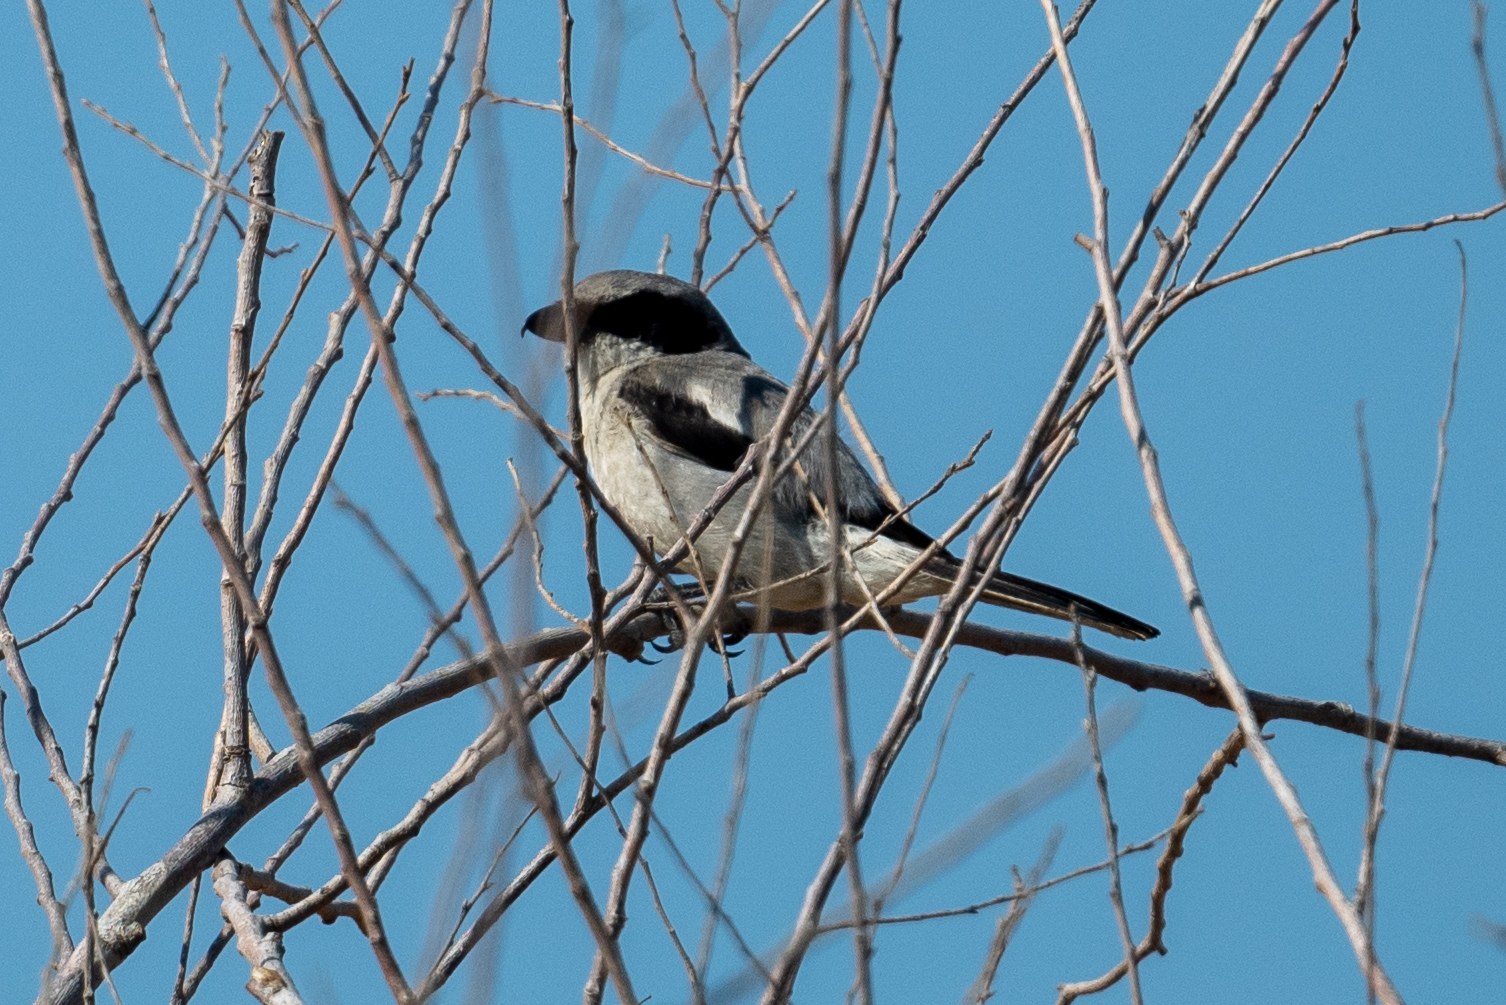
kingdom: Animalia
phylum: Chordata
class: Aves
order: Passeriformes
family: Laniidae
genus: Lanius
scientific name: Lanius ludovicianus
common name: Loggerhead shrike
